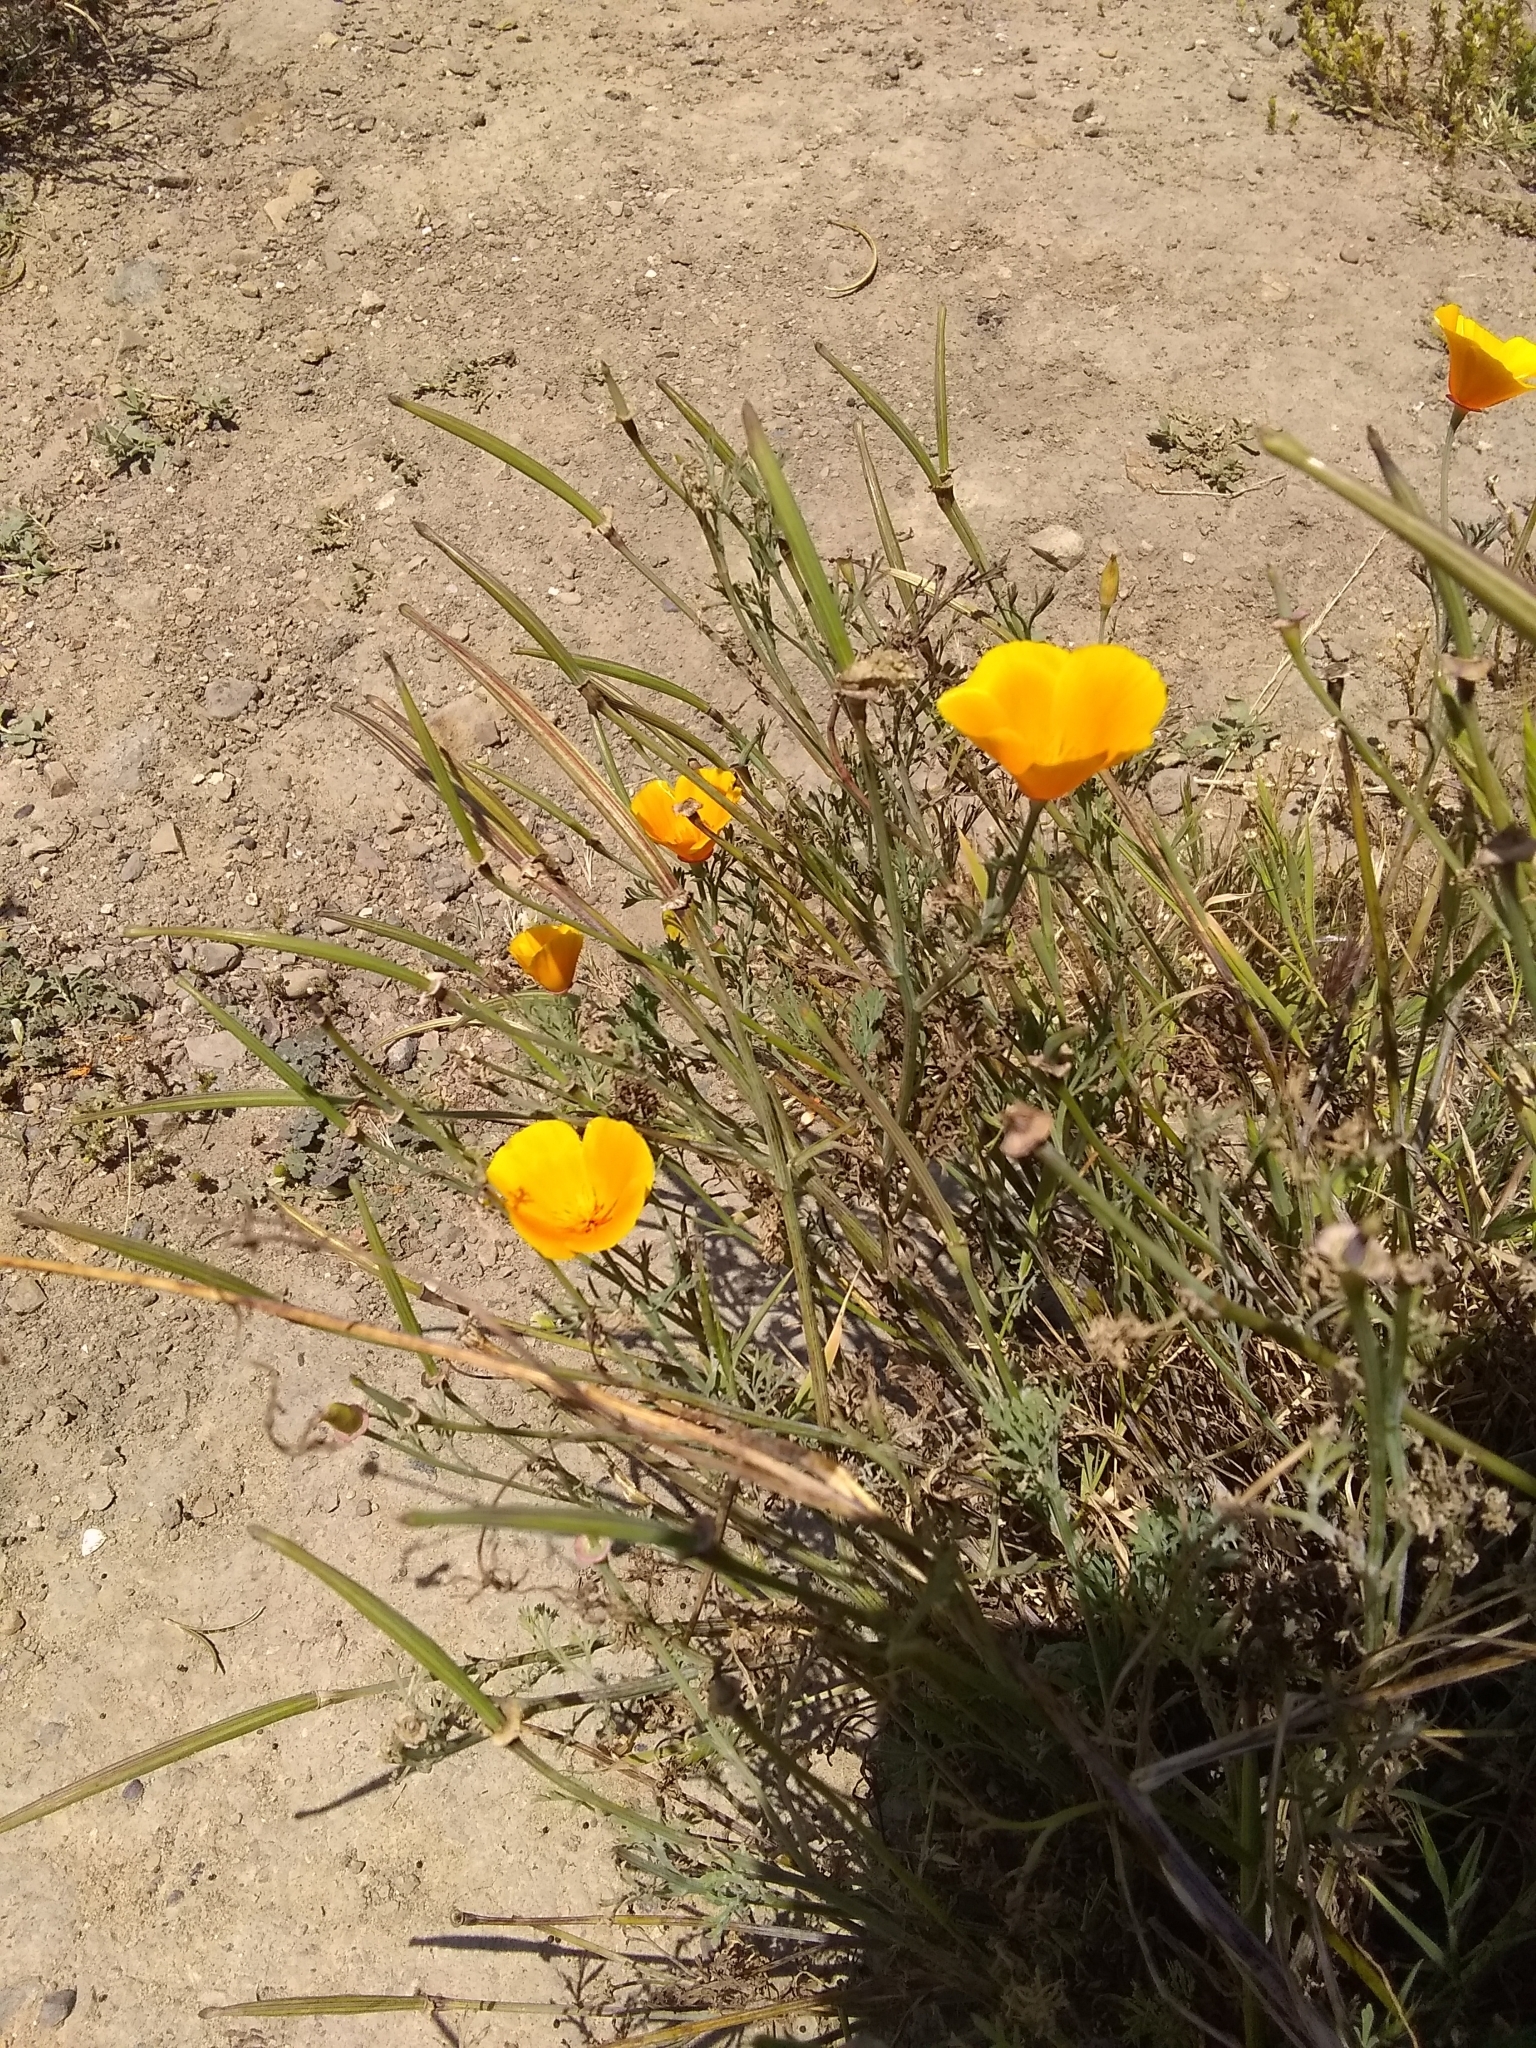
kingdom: Plantae
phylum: Tracheophyta
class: Magnoliopsida
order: Ranunculales
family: Papaveraceae
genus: Eschscholzia
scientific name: Eschscholzia californica
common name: California poppy
